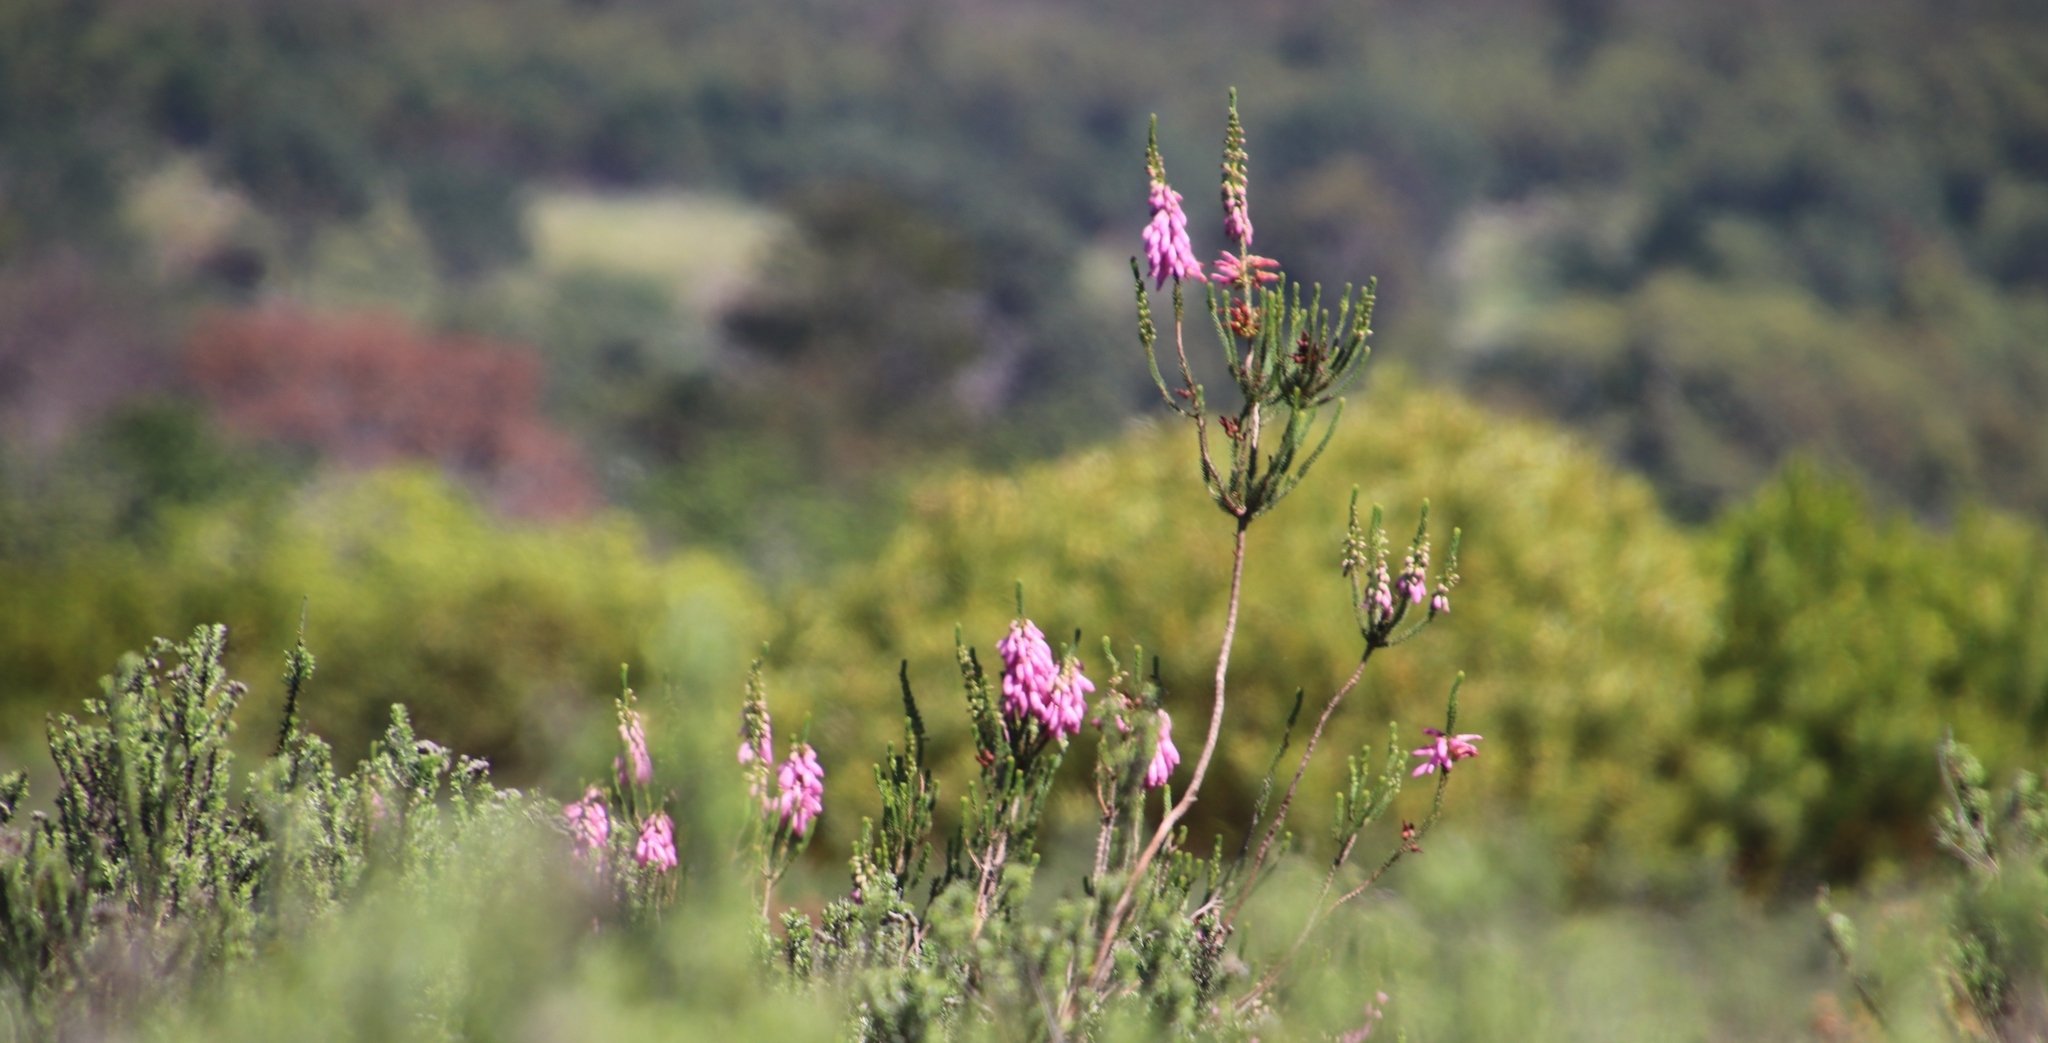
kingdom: Plantae
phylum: Tracheophyta
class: Magnoliopsida
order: Ericales
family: Ericaceae
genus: Erica
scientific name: Erica mammosa
